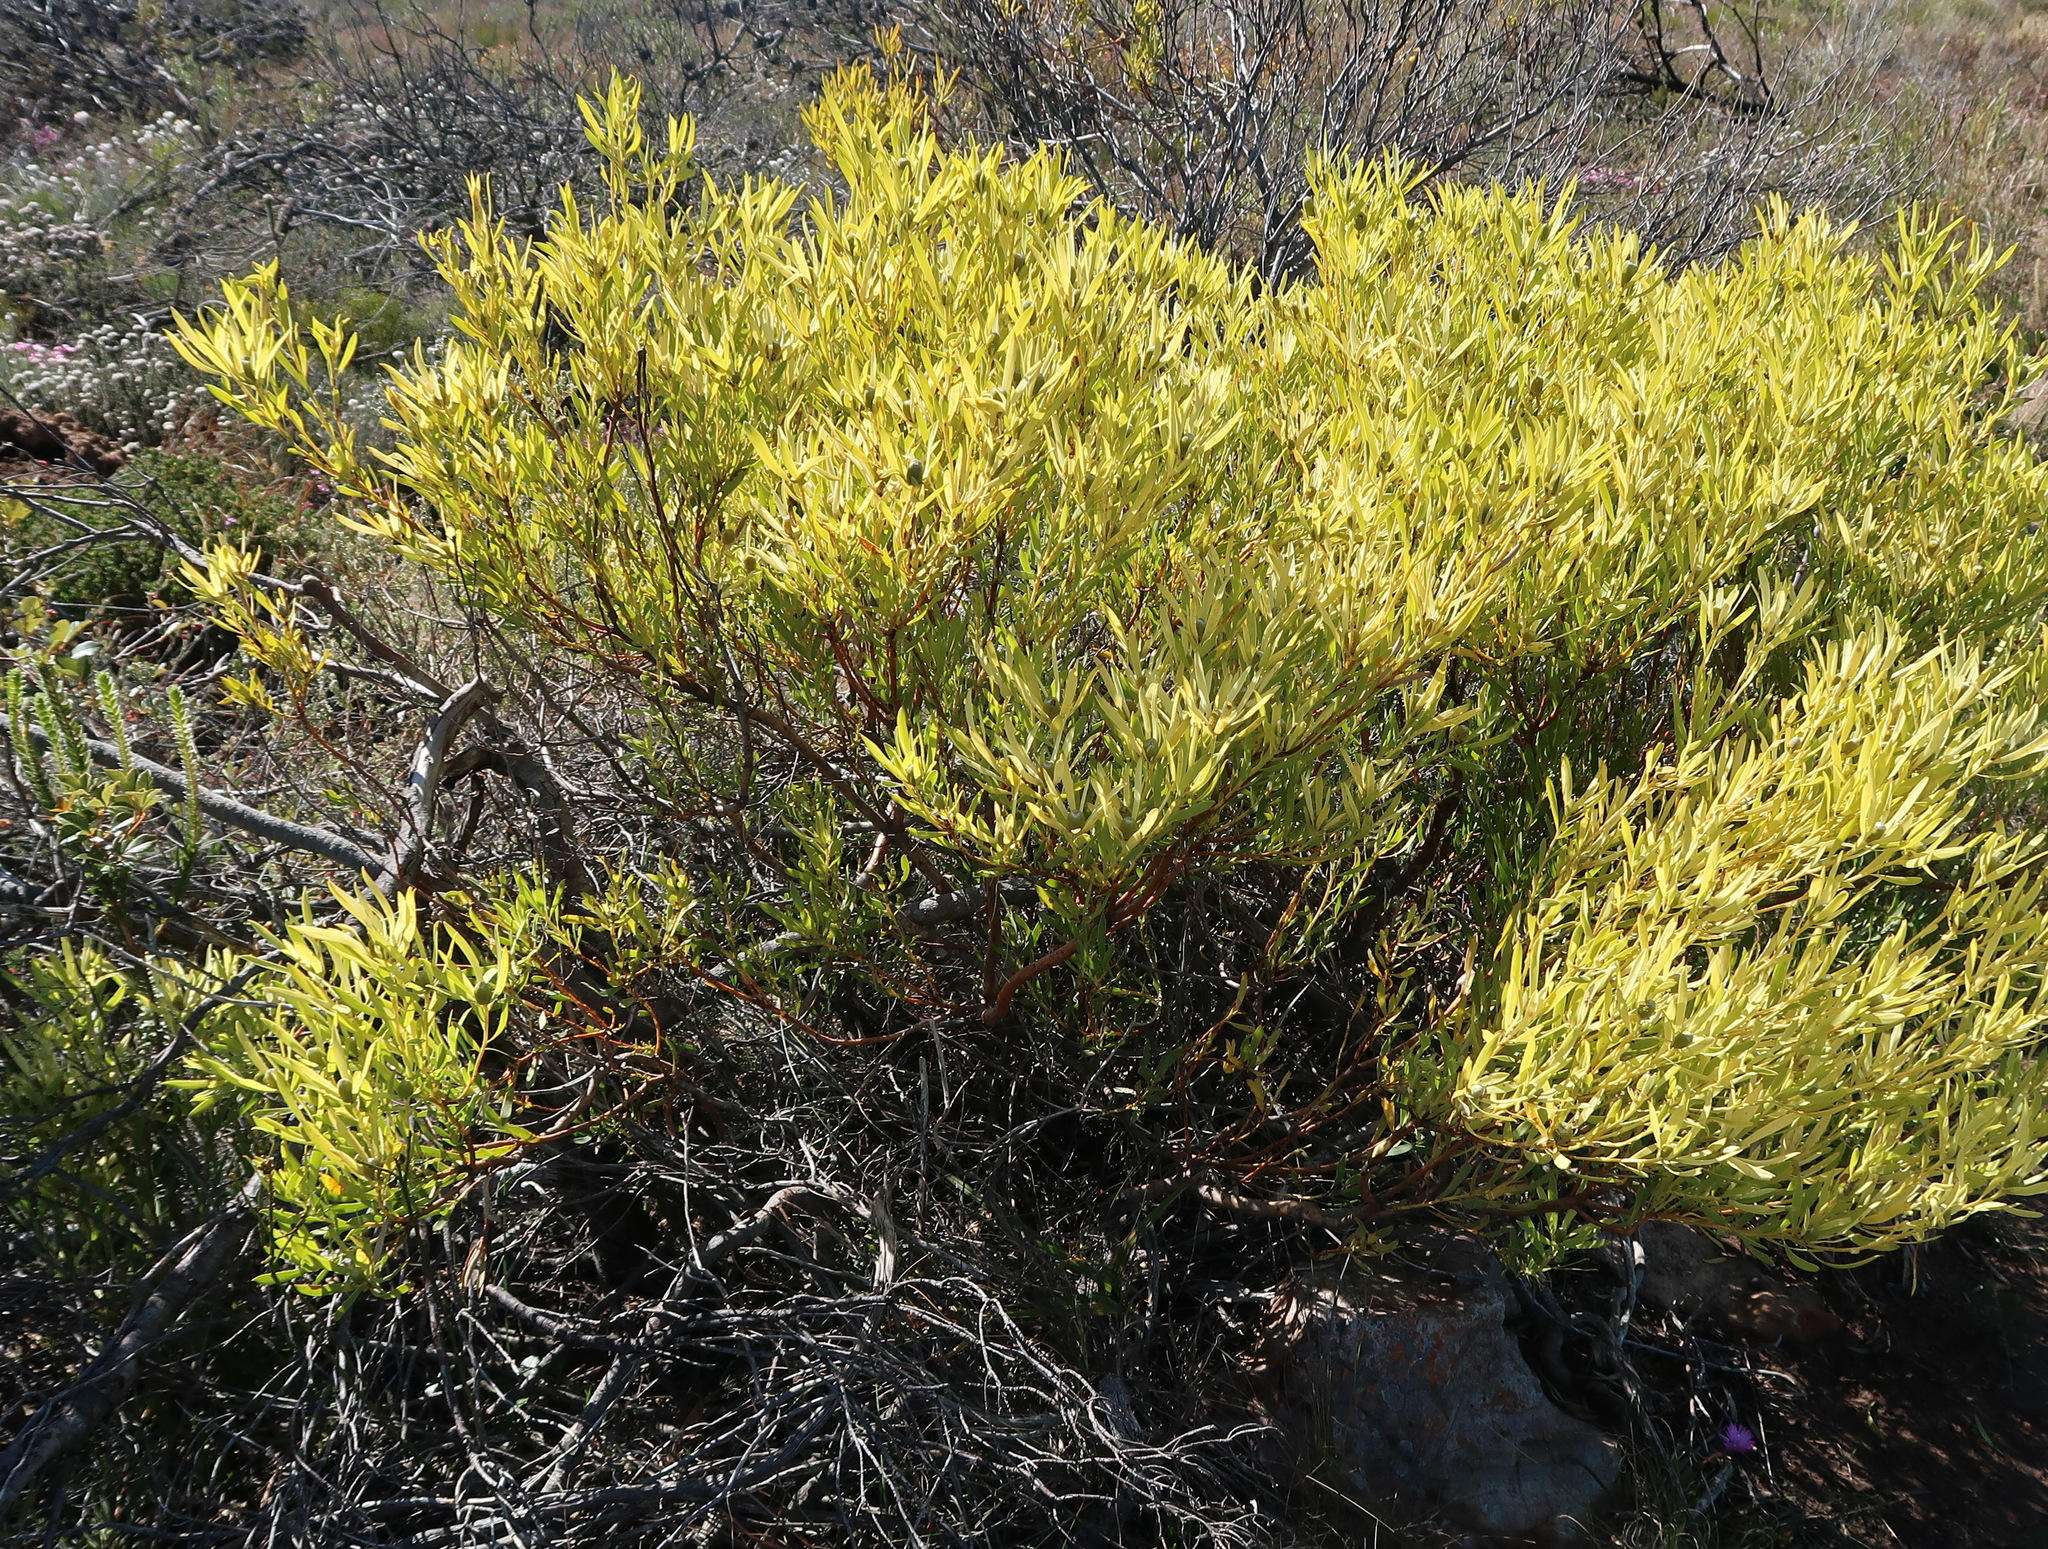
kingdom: Plantae
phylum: Tracheophyta
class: Magnoliopsida
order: Proteales
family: Proteaceae
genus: Leucadendron
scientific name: Leucadendron salignum
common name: Common sunshine conebush
